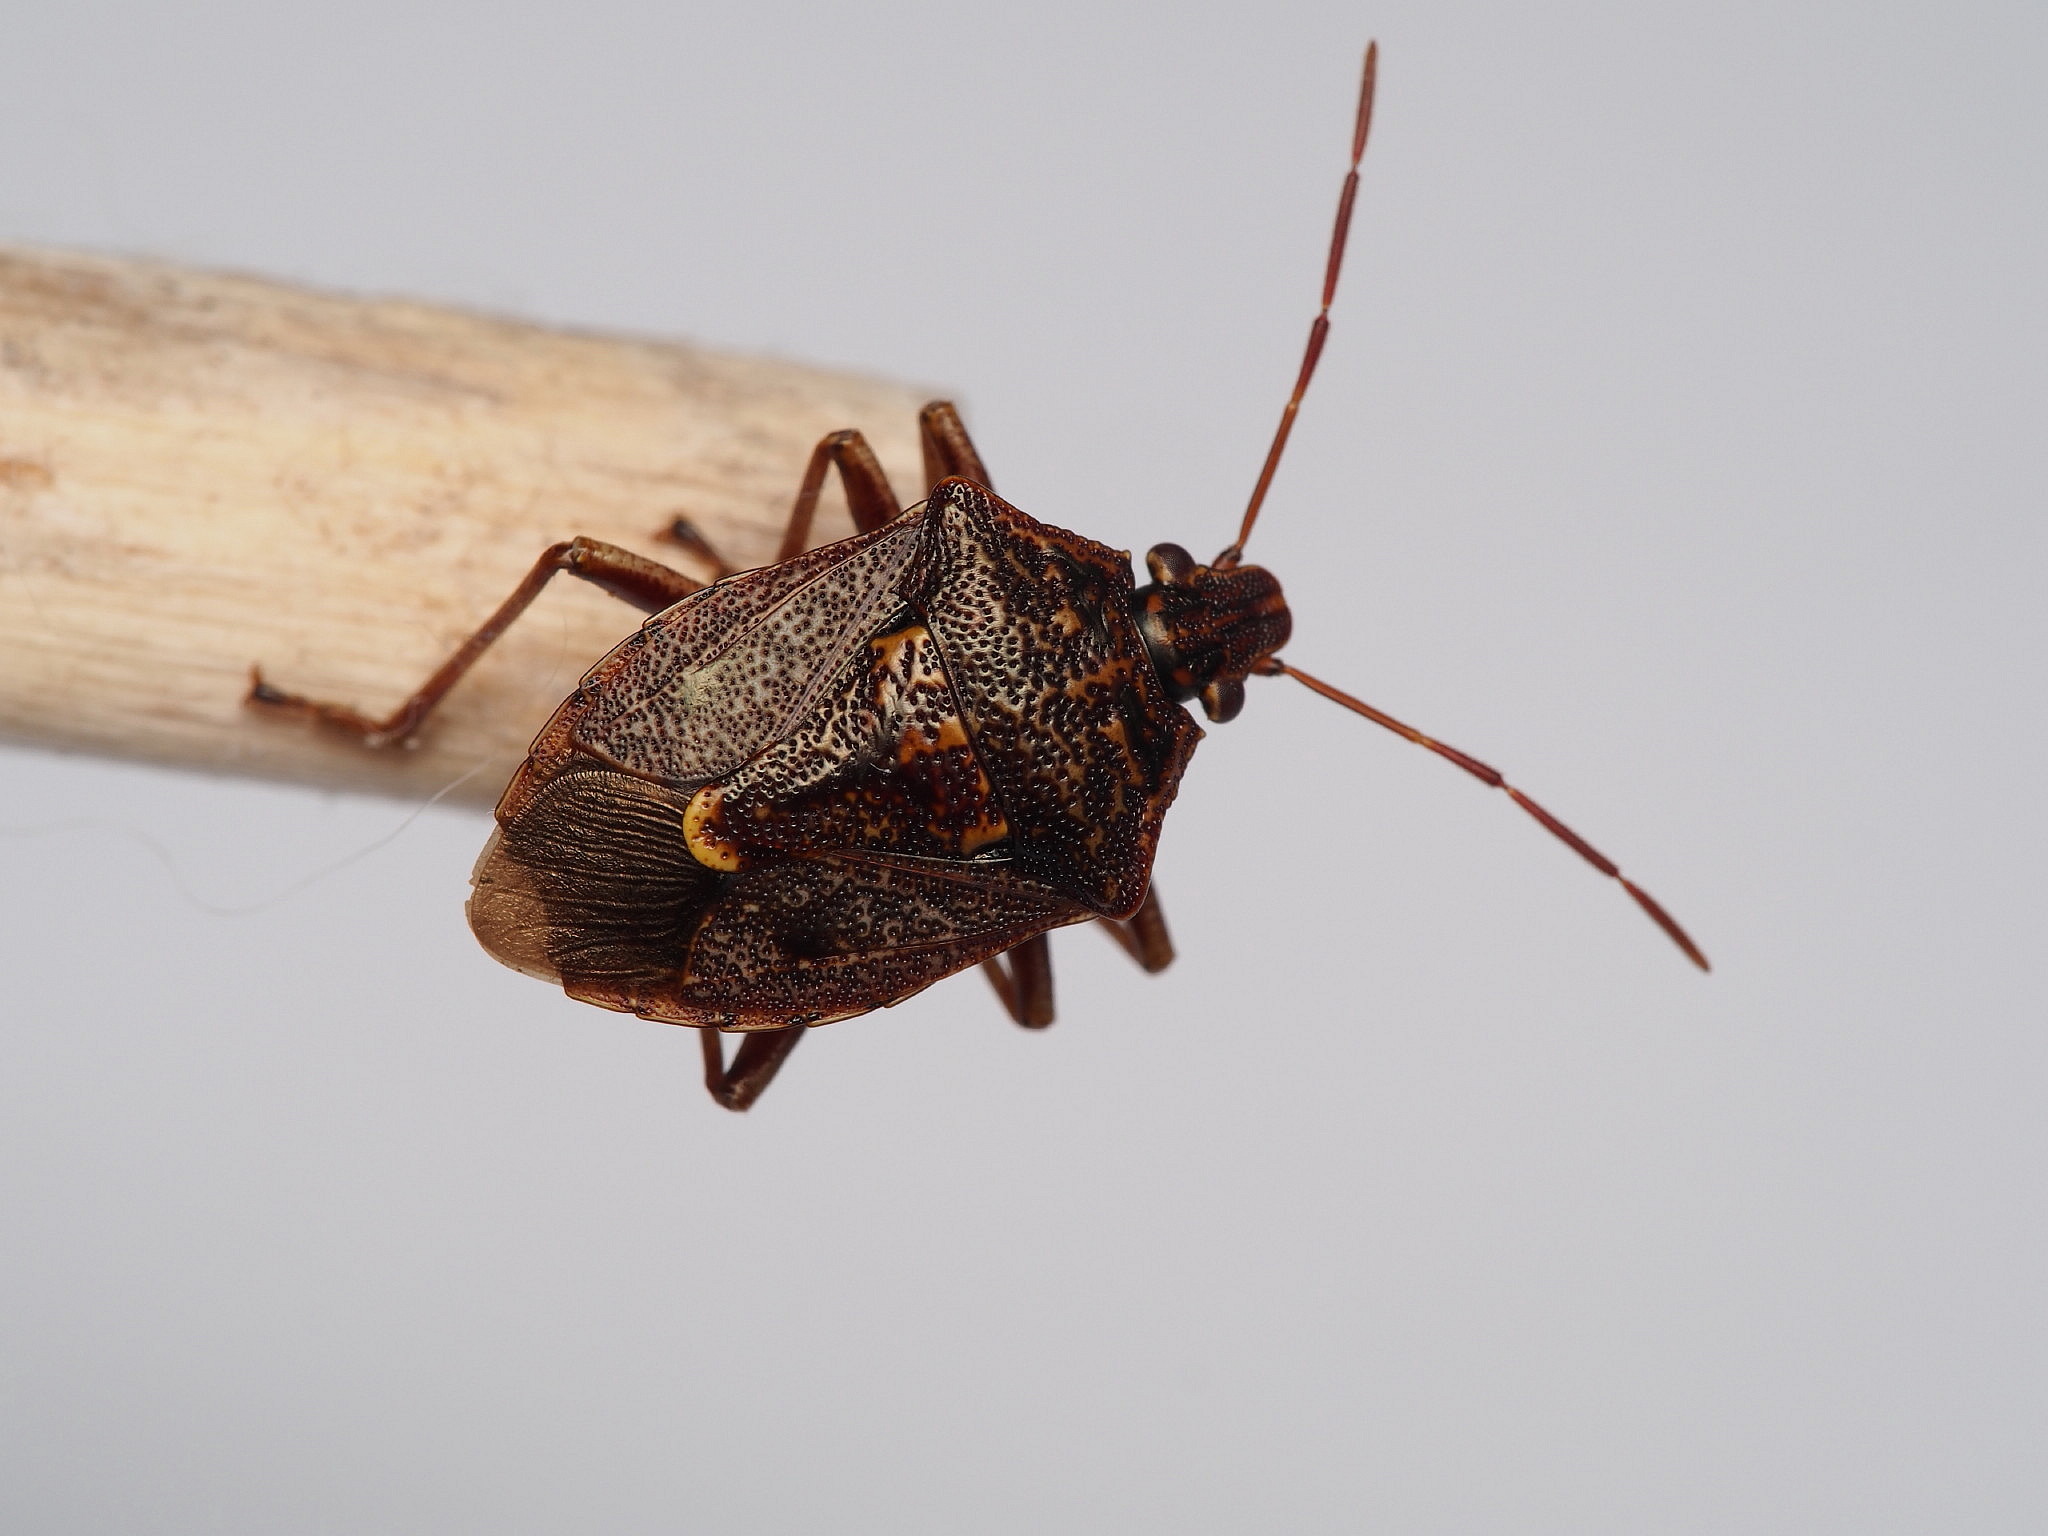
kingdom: Animalia
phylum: Arthropoda
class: Insecta
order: Hemiptera
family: Pentatomidae
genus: Cermatulus
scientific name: Cermatulus nasalis
